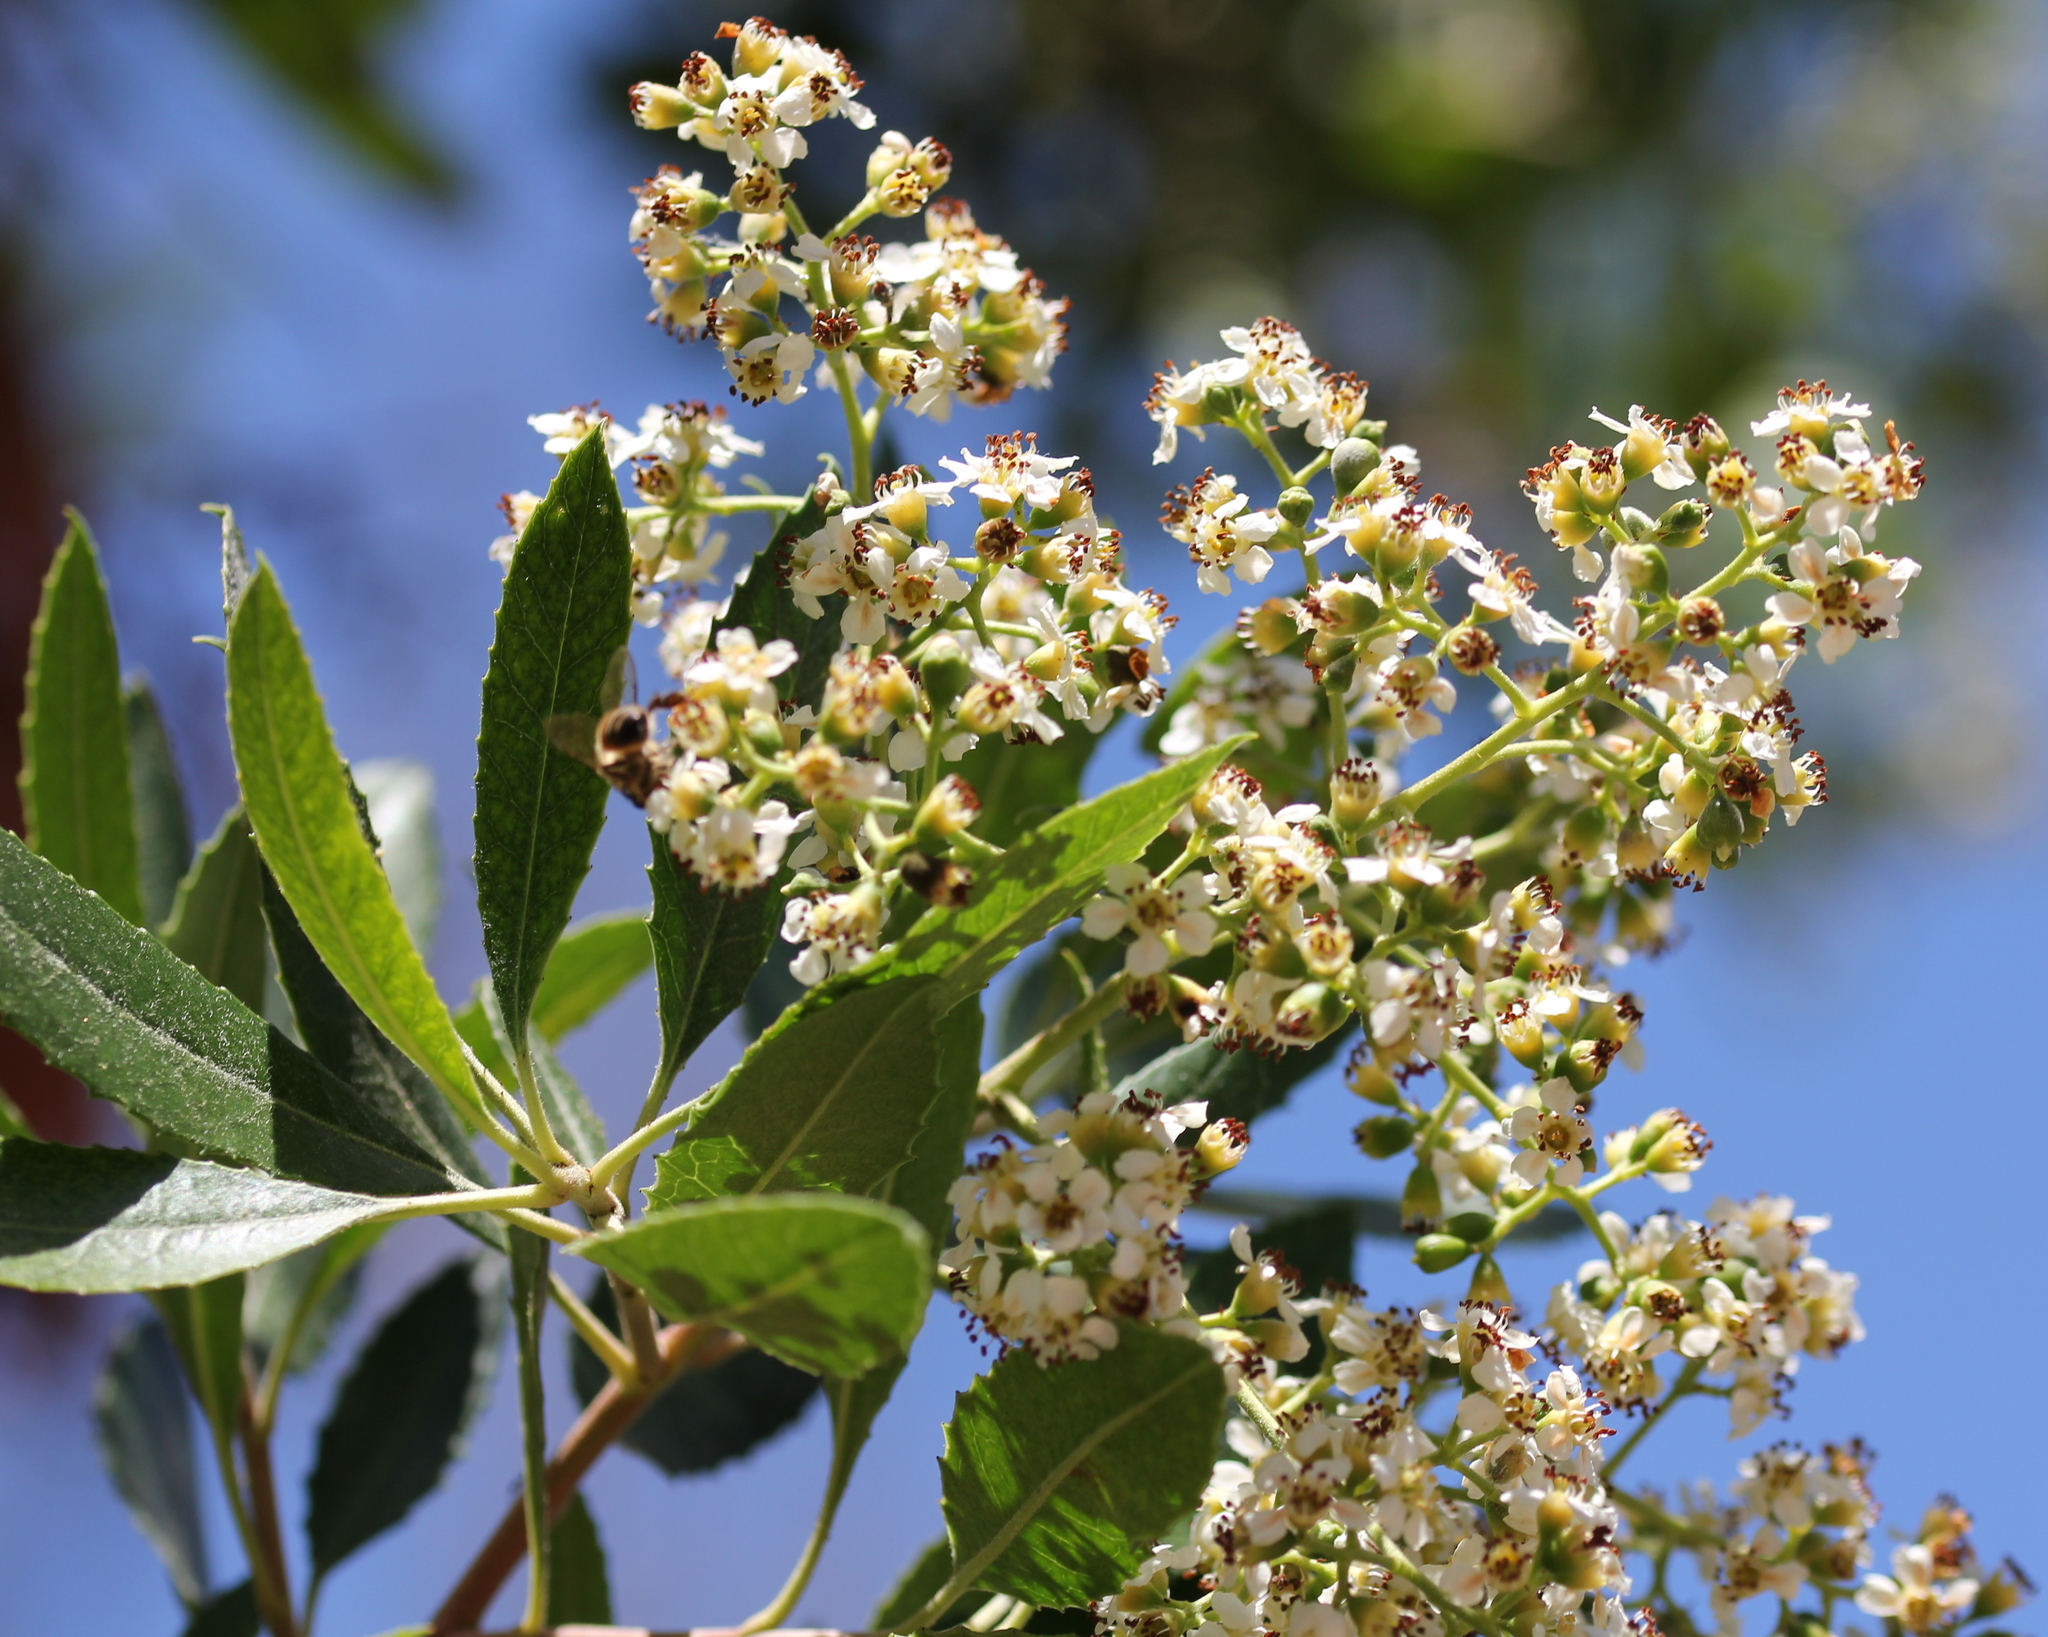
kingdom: Plantae
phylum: Tracheophyta
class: Magnoliopsida
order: Rosales
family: Rosaceae
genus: Heteromeles
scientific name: Heteromeles arbutifolia
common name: California-holly
